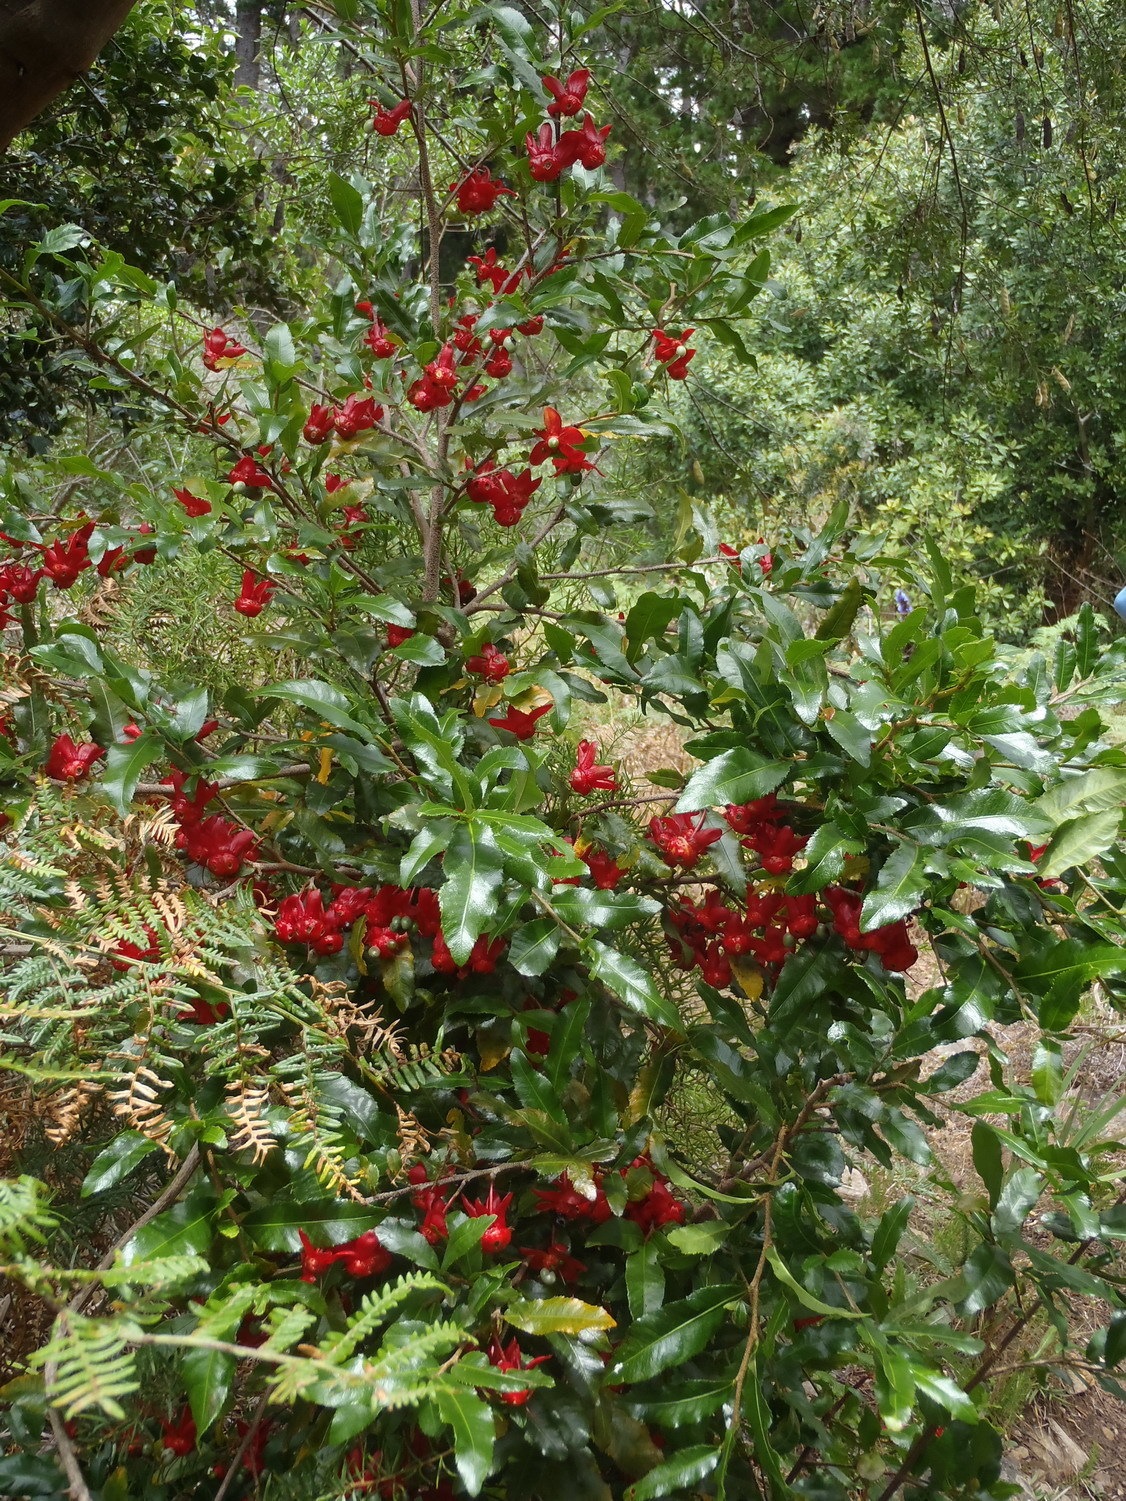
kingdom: Plantae
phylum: Tracheophyta
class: Magnoliopsida
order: Malpighiales
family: Ochnaceae
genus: Ochna
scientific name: Ochna serrulata
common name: Mickey mouse plant
